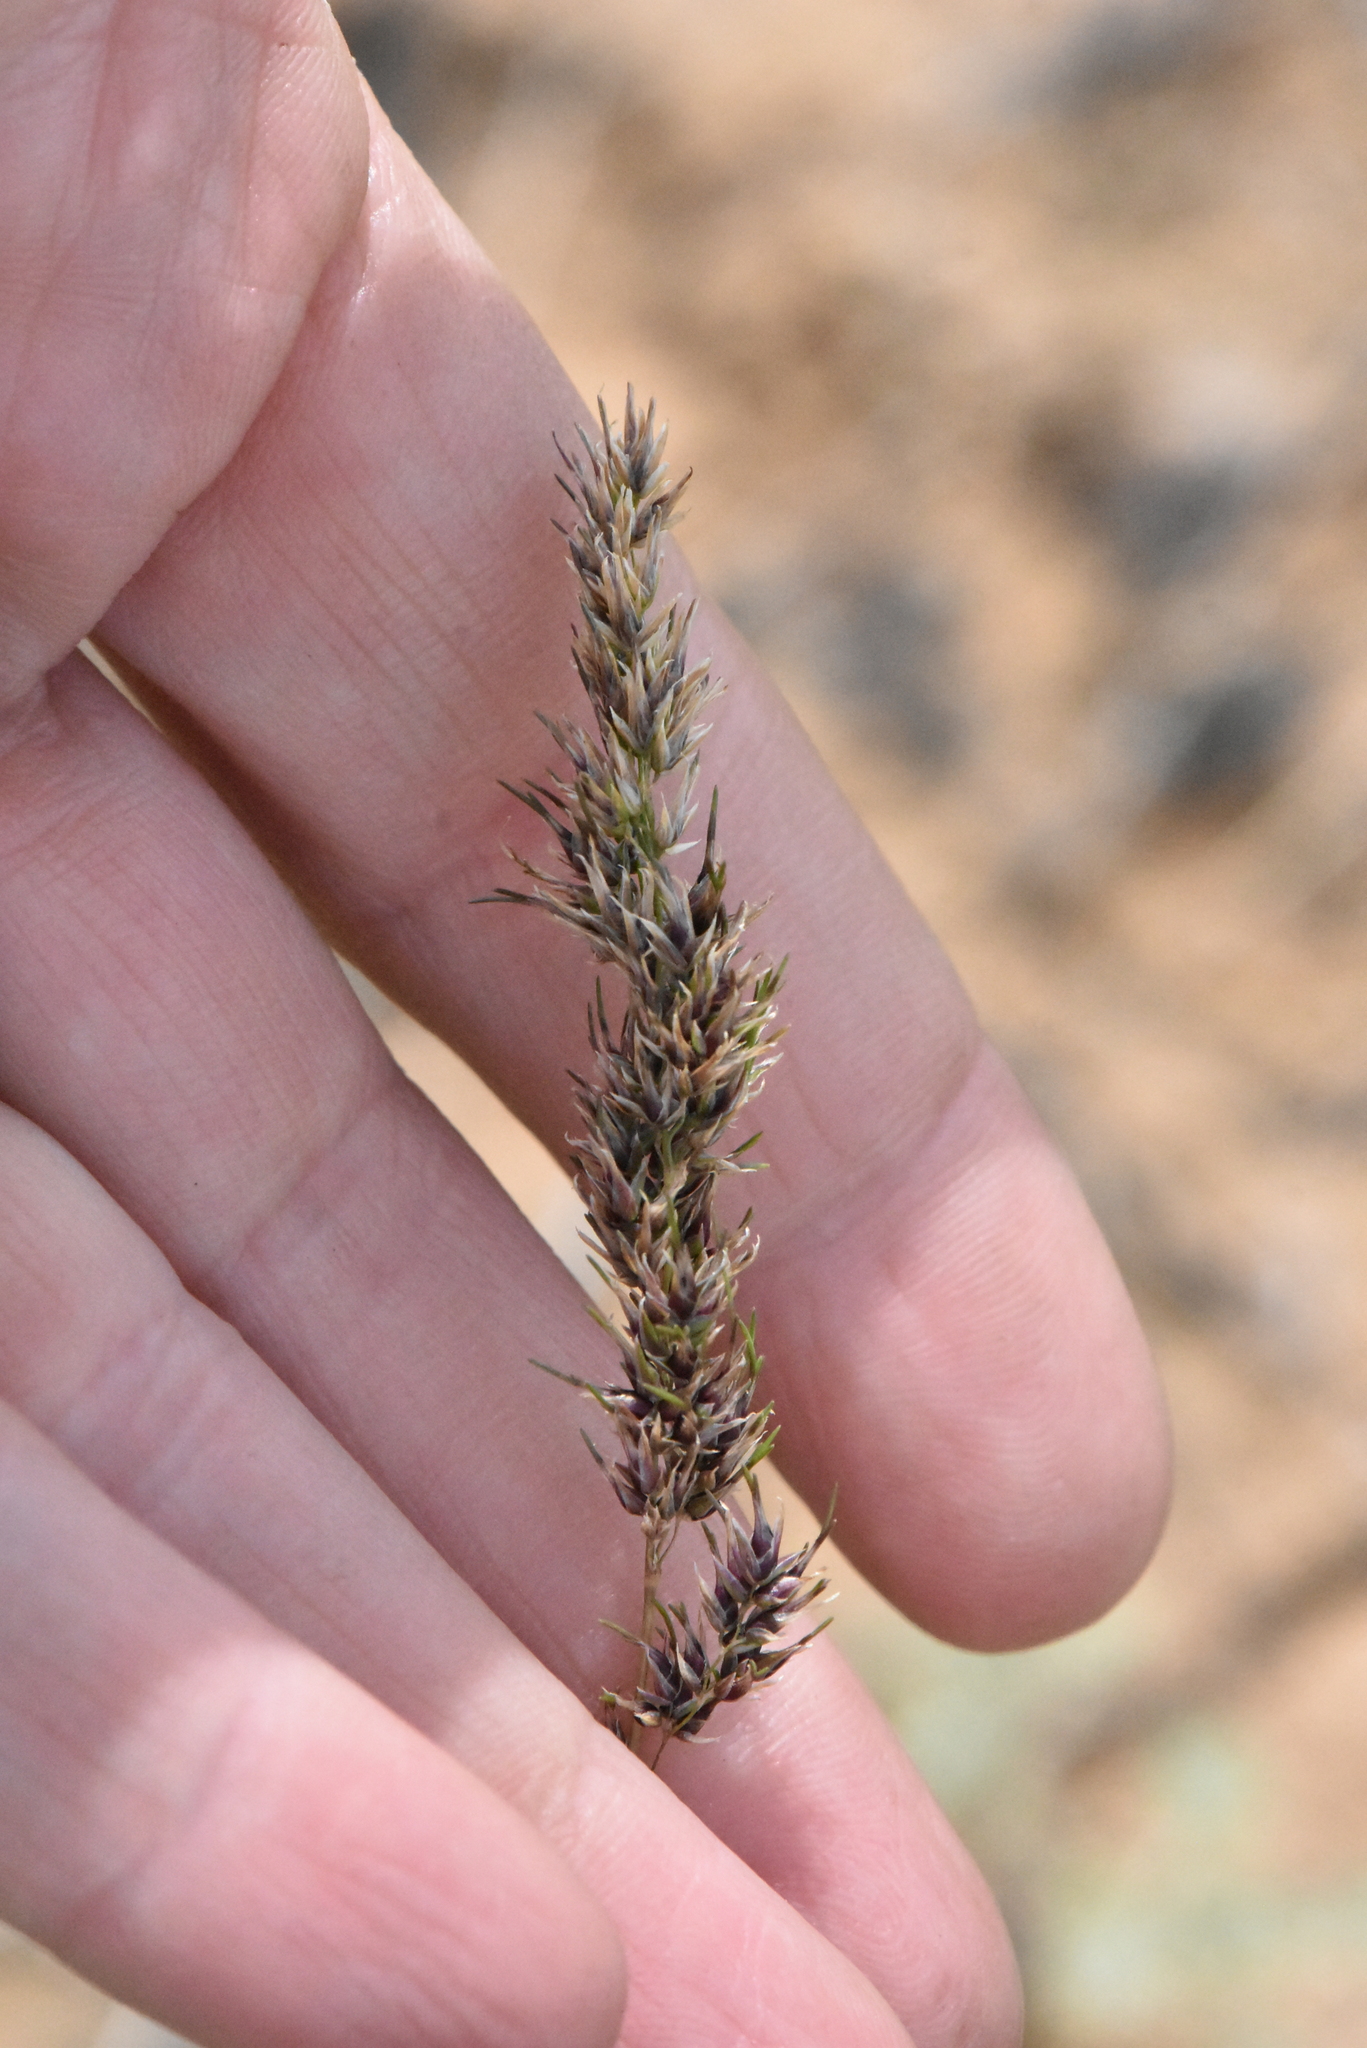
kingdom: Plantae
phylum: Tracheophyta
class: Liliopsida
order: Poales
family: Poaceae
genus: Poa
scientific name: Poa bulbosa
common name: Bulbous bluegrass
